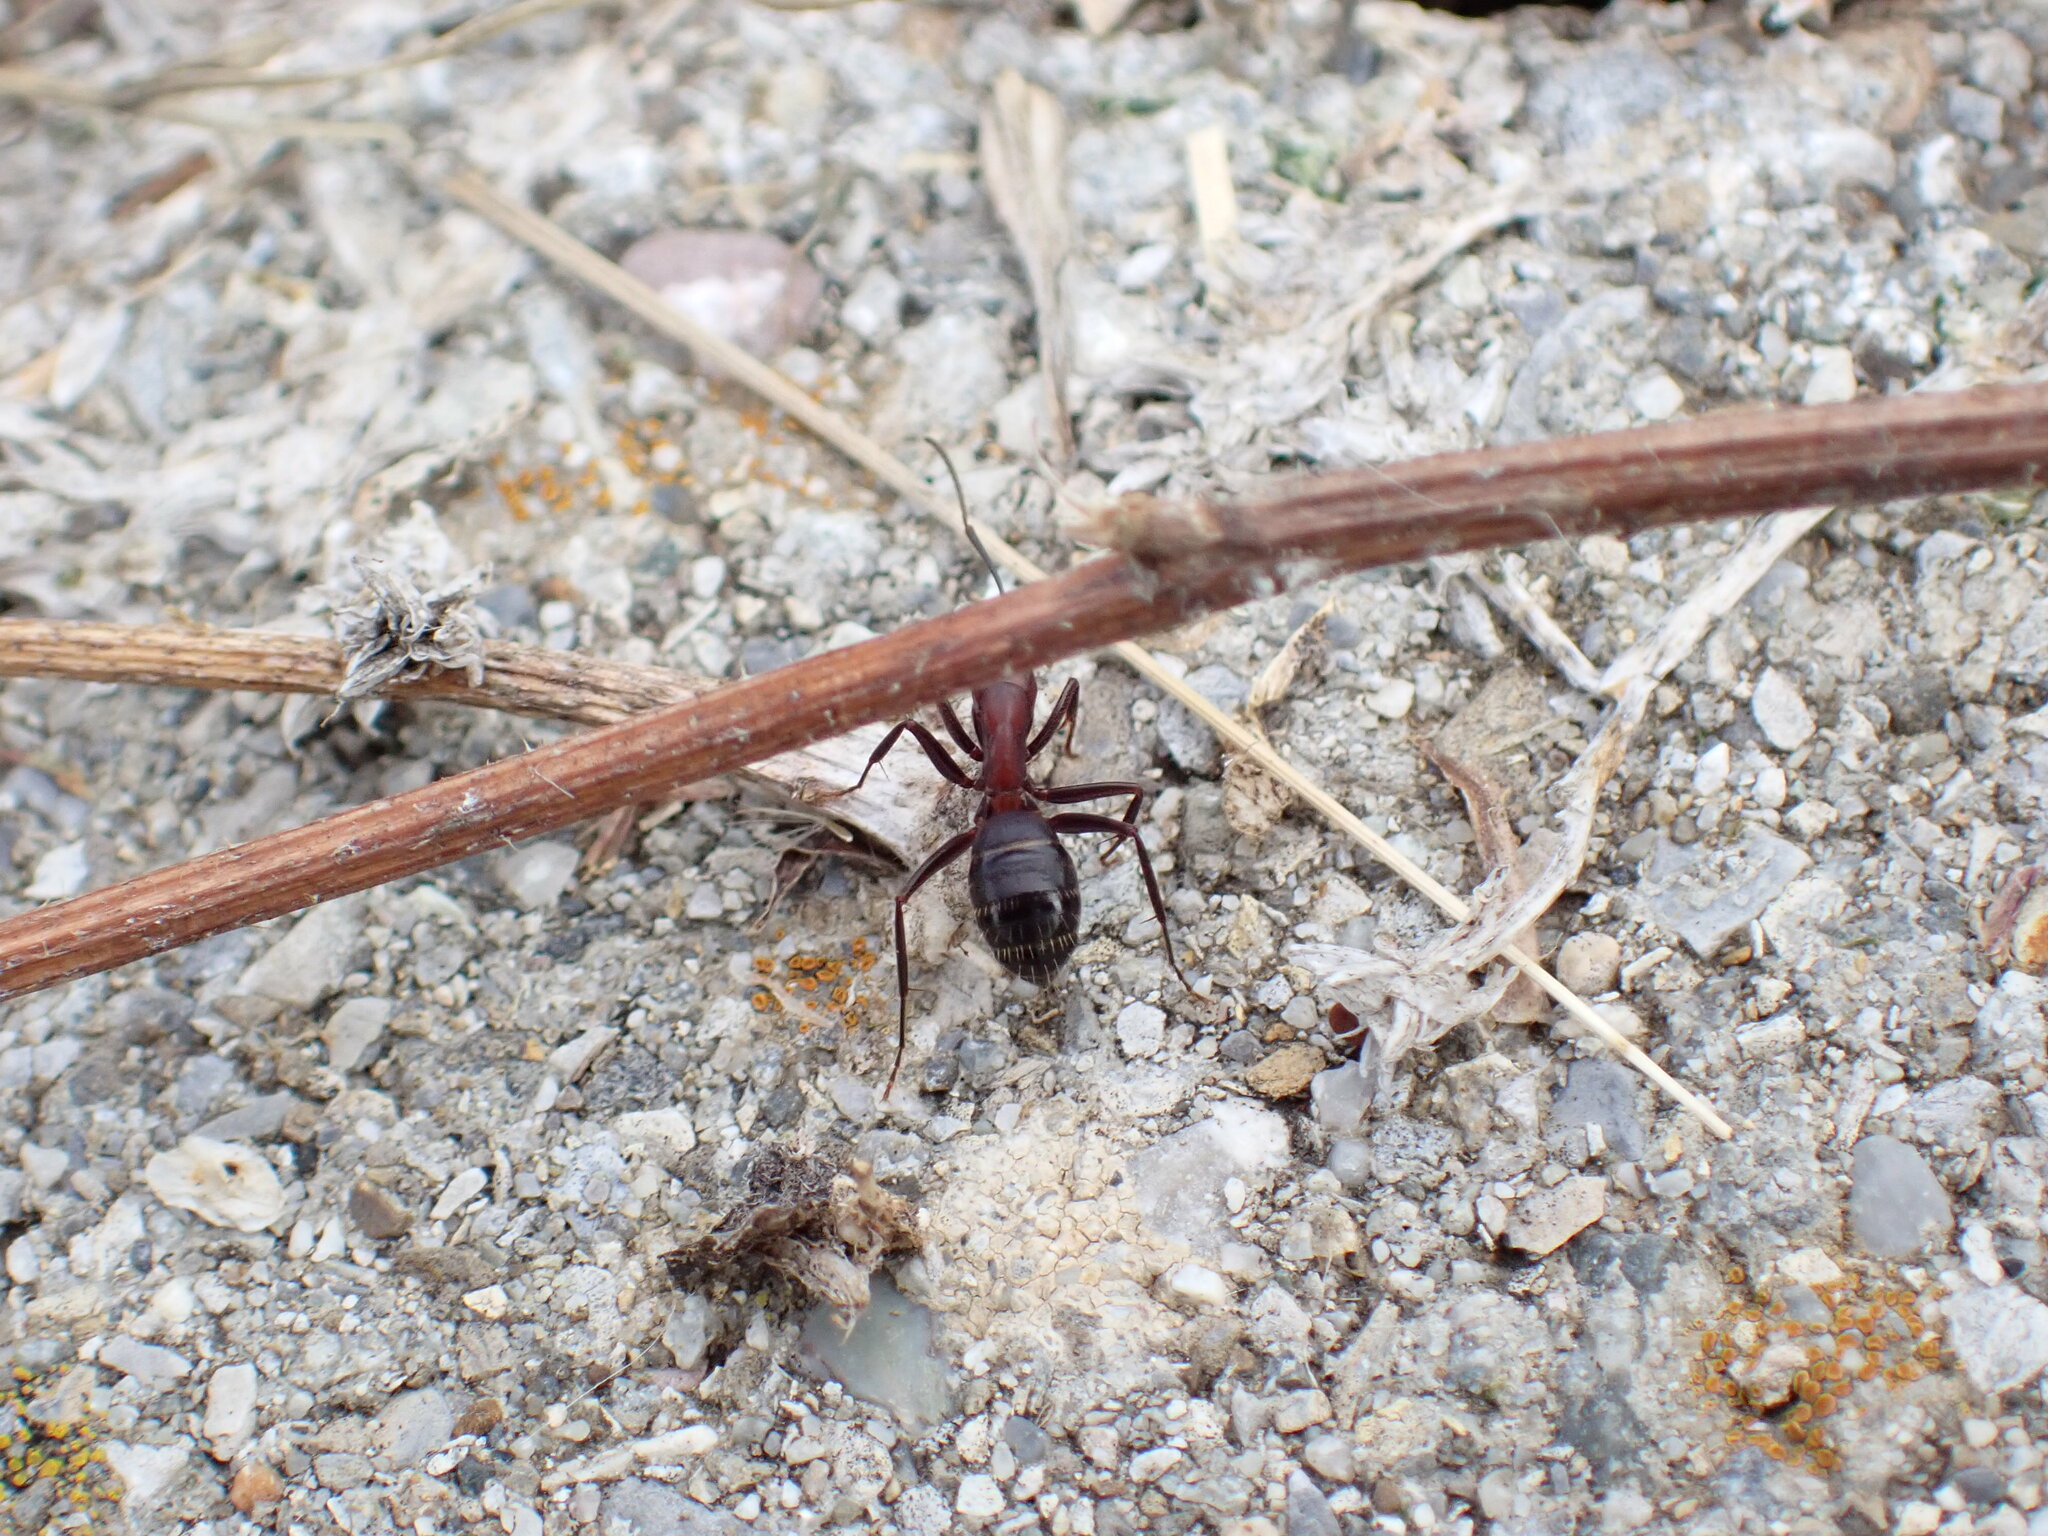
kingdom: Animalia
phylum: Arthropoda
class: Insecta
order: Hymenoptera
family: Formicidae
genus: Camponotus
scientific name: Camponotus ligniperdus
